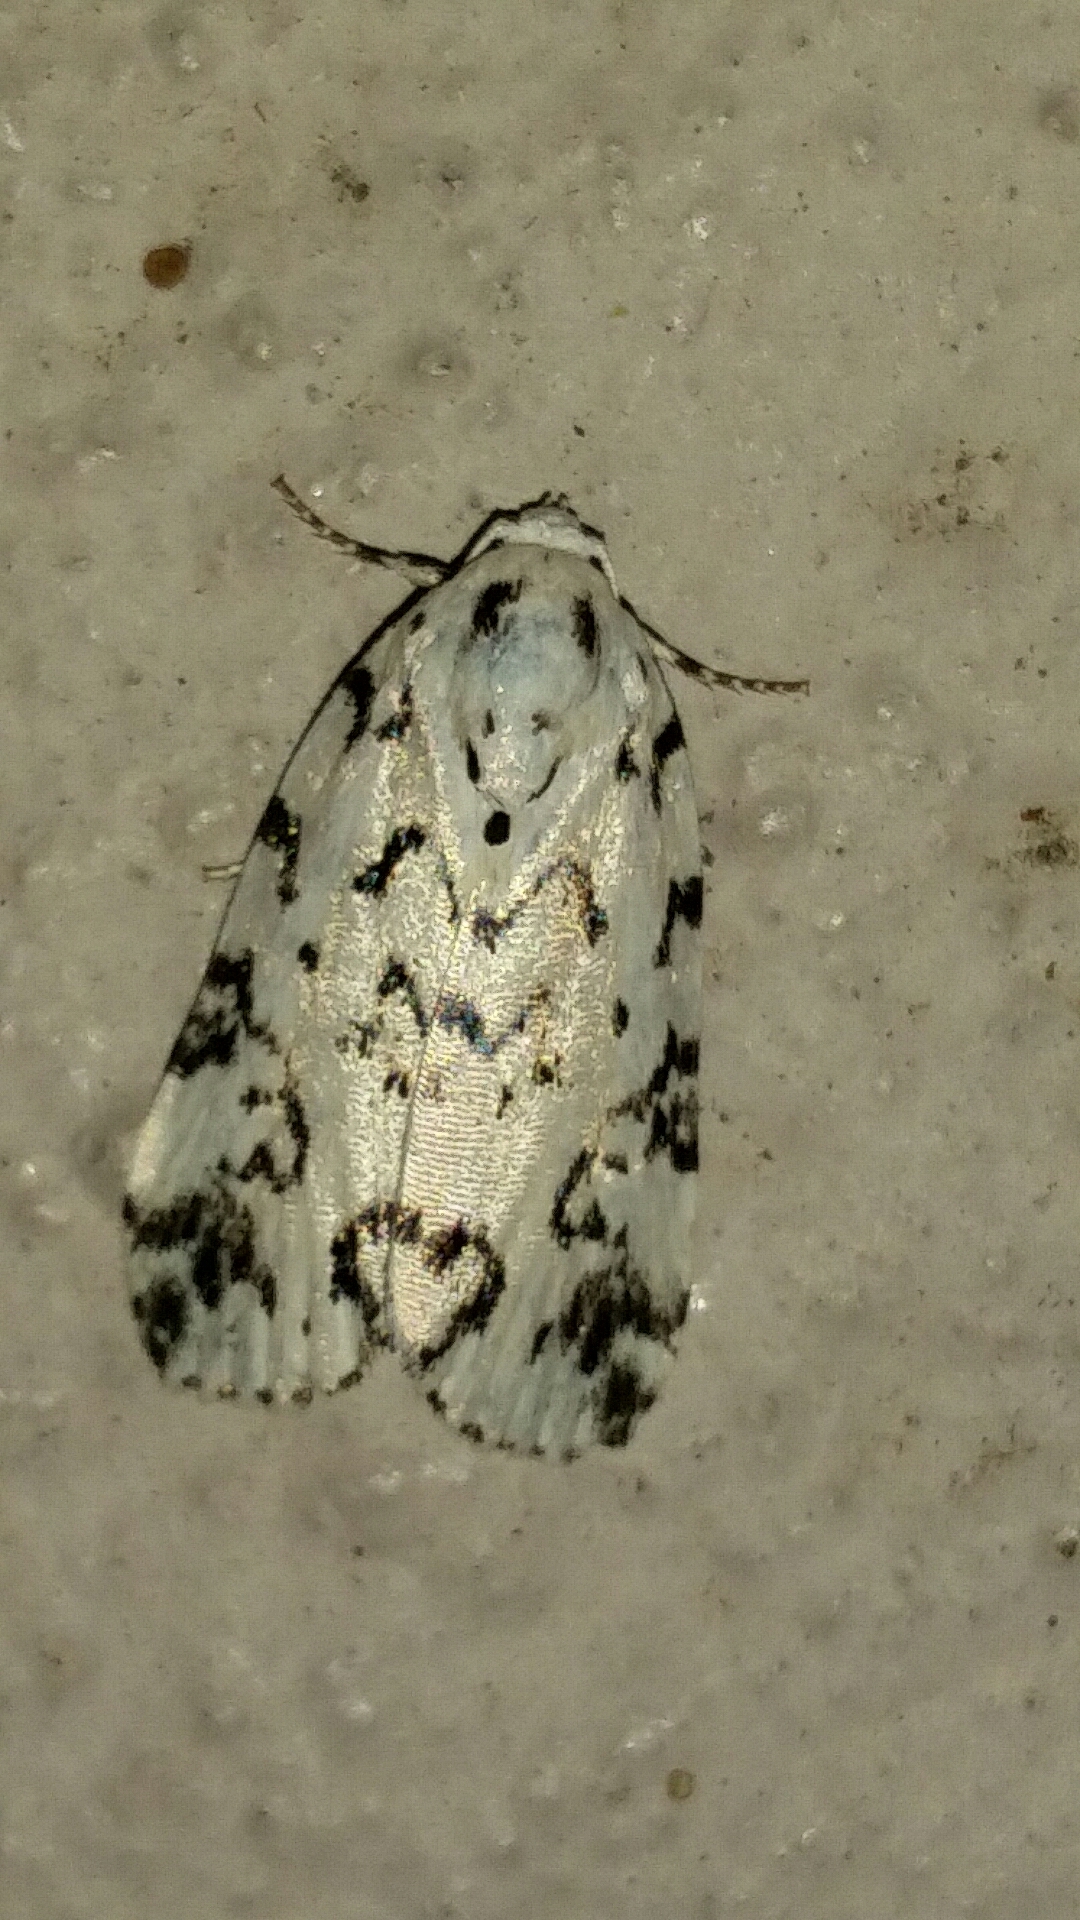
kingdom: Animalia
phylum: Arthropoda
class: Insecta
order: Lepidoptera
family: Noctuidae
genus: Polygrammate
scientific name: Polygrammate hebraeicum
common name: Hebrew moth
